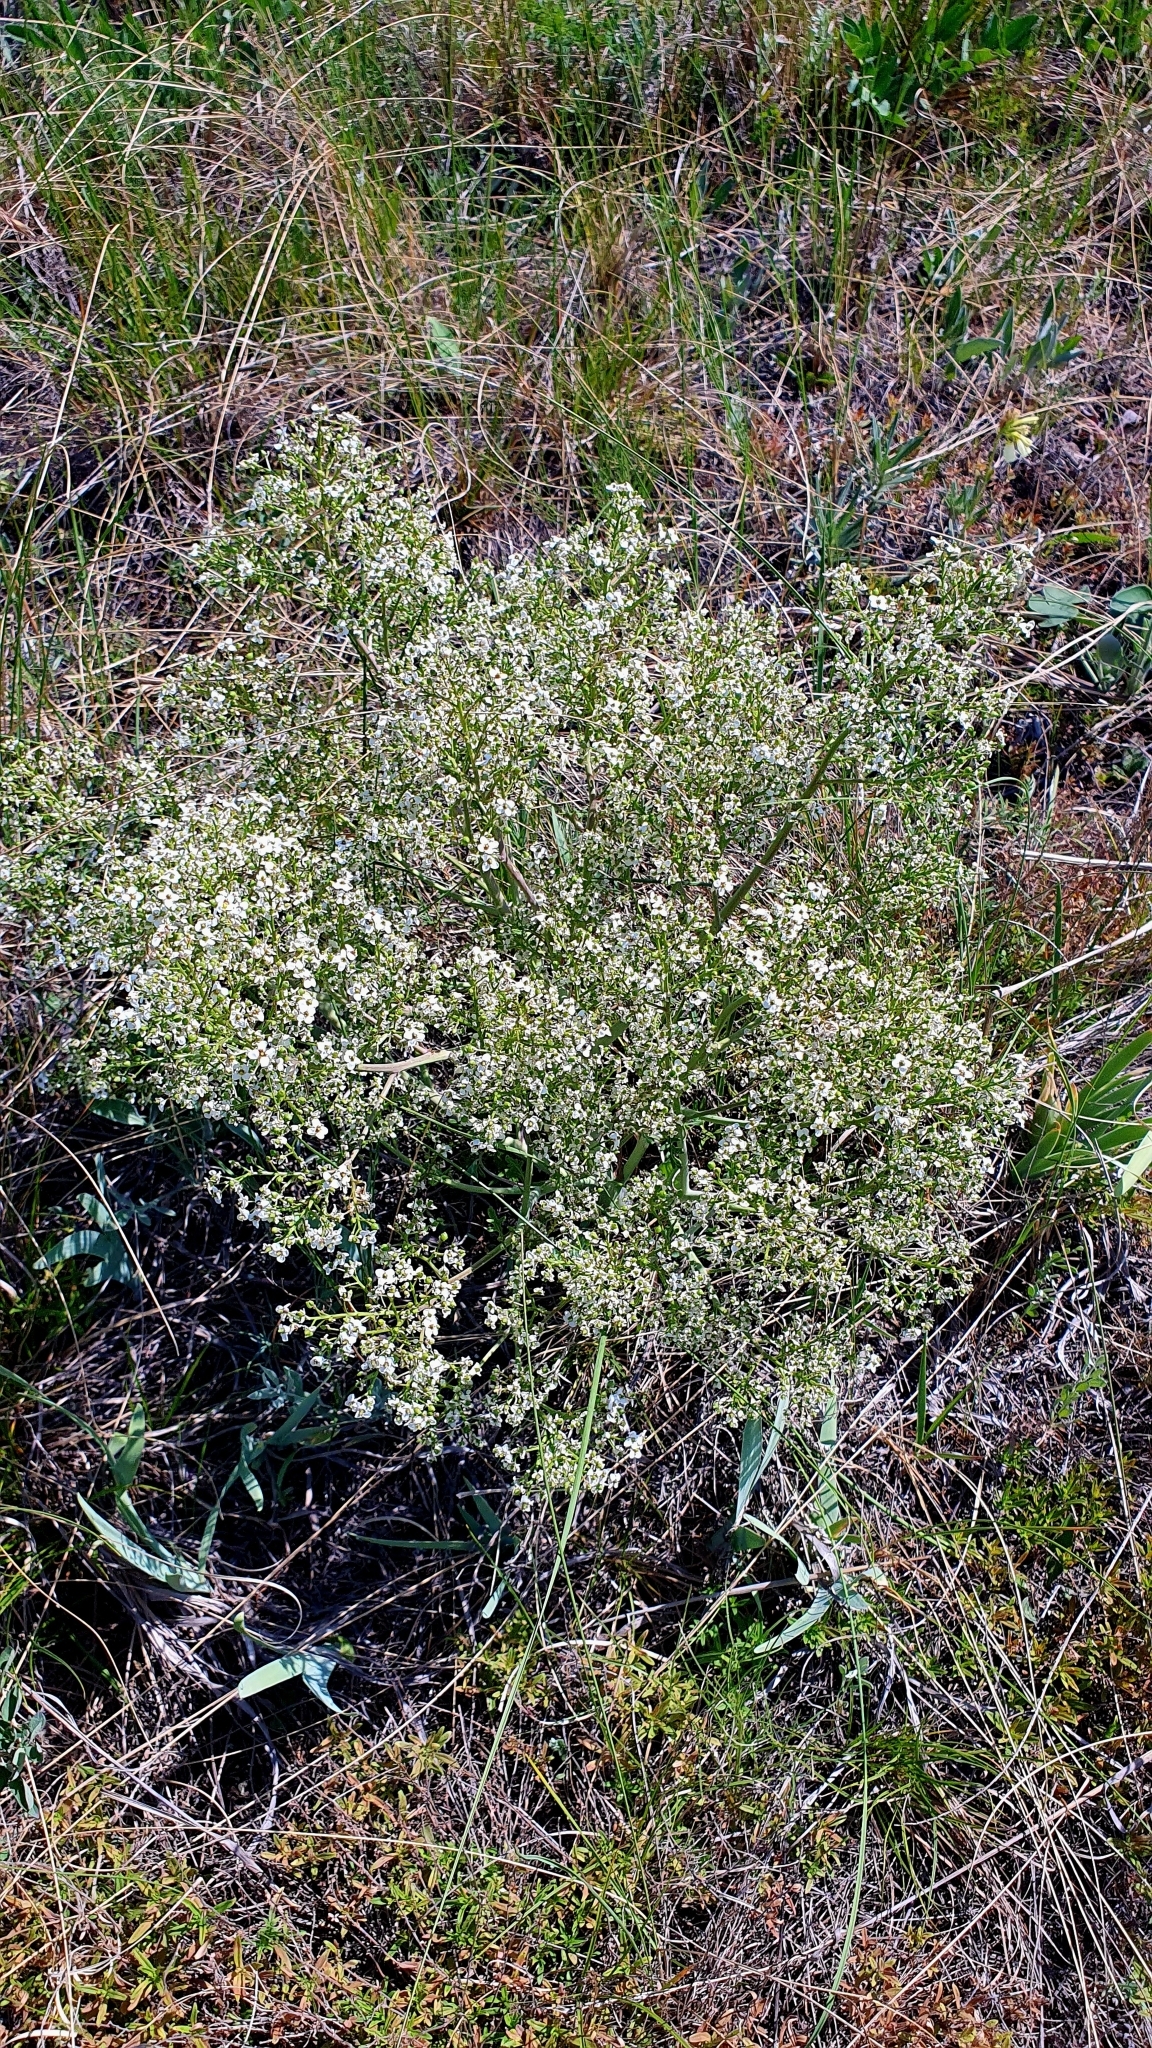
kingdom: Plantae
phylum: Tracheophyta
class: Magnoliopsida
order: Brassicales
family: Brassicaceae
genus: Crambe
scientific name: Crambe tataria
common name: Tartarian breadplant
